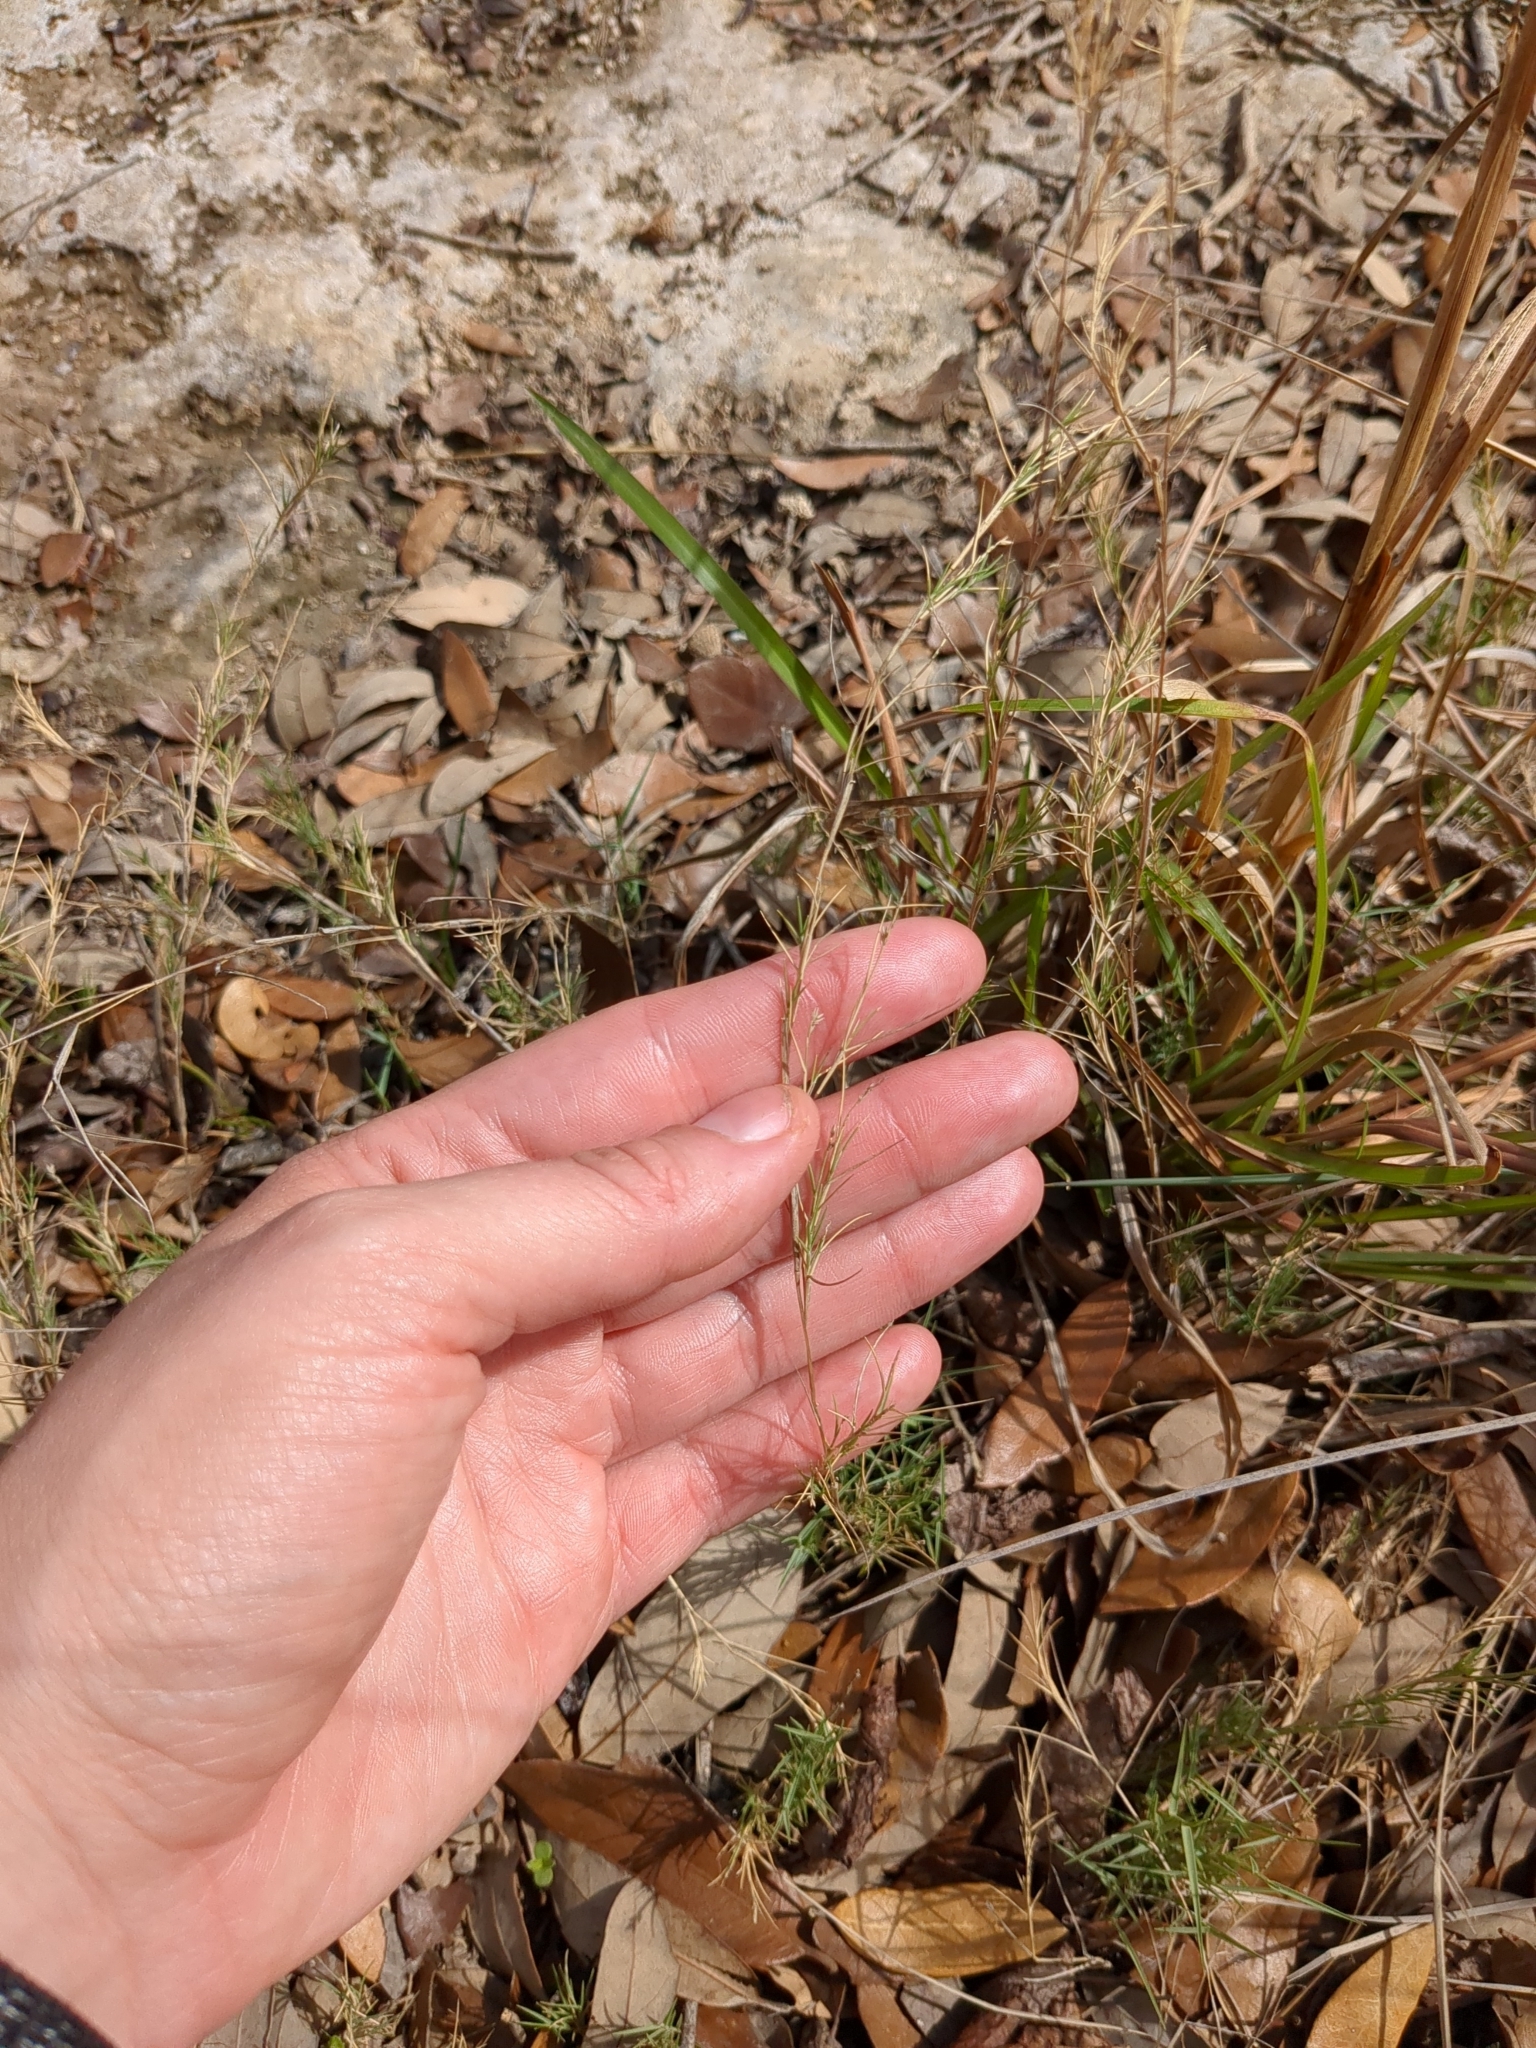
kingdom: Plantae
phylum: Tracheophyta
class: Liliopsida
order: Poales
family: Poaceae
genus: Muhlenbergia
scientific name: Muhlenbergia utilis
